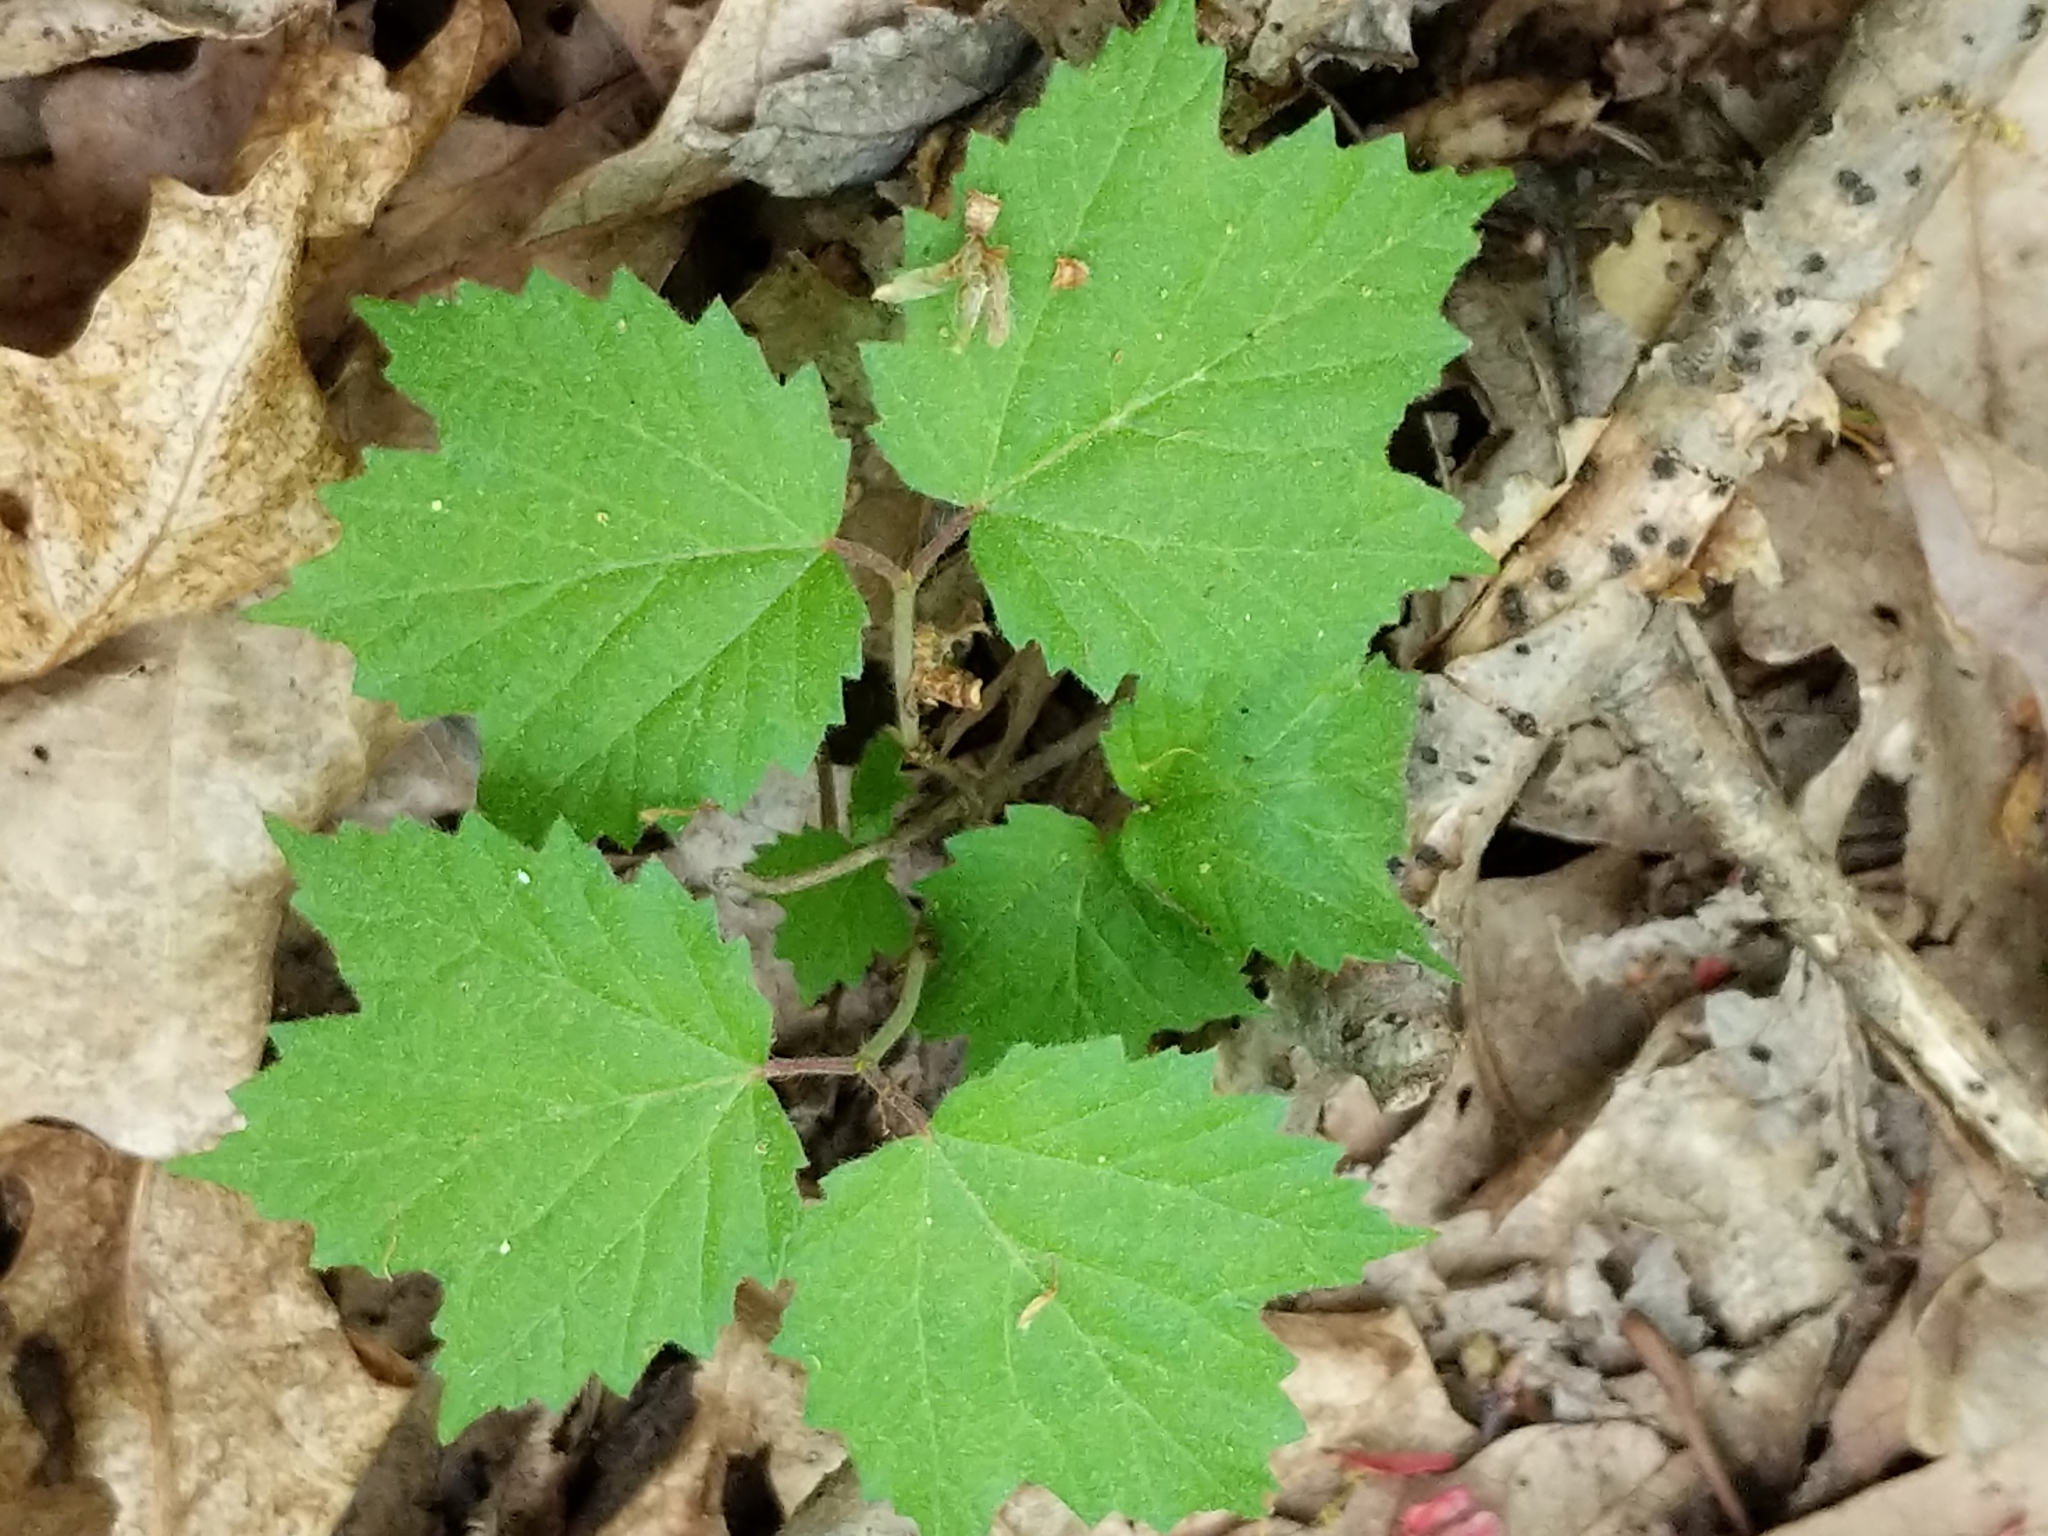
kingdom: Plantae
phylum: Tracheophyta
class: Magnoliopsida
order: Dipsacales
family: Viburnaceae
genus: Viburnum
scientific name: Viburnum acerifolium
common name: Dockmackie
